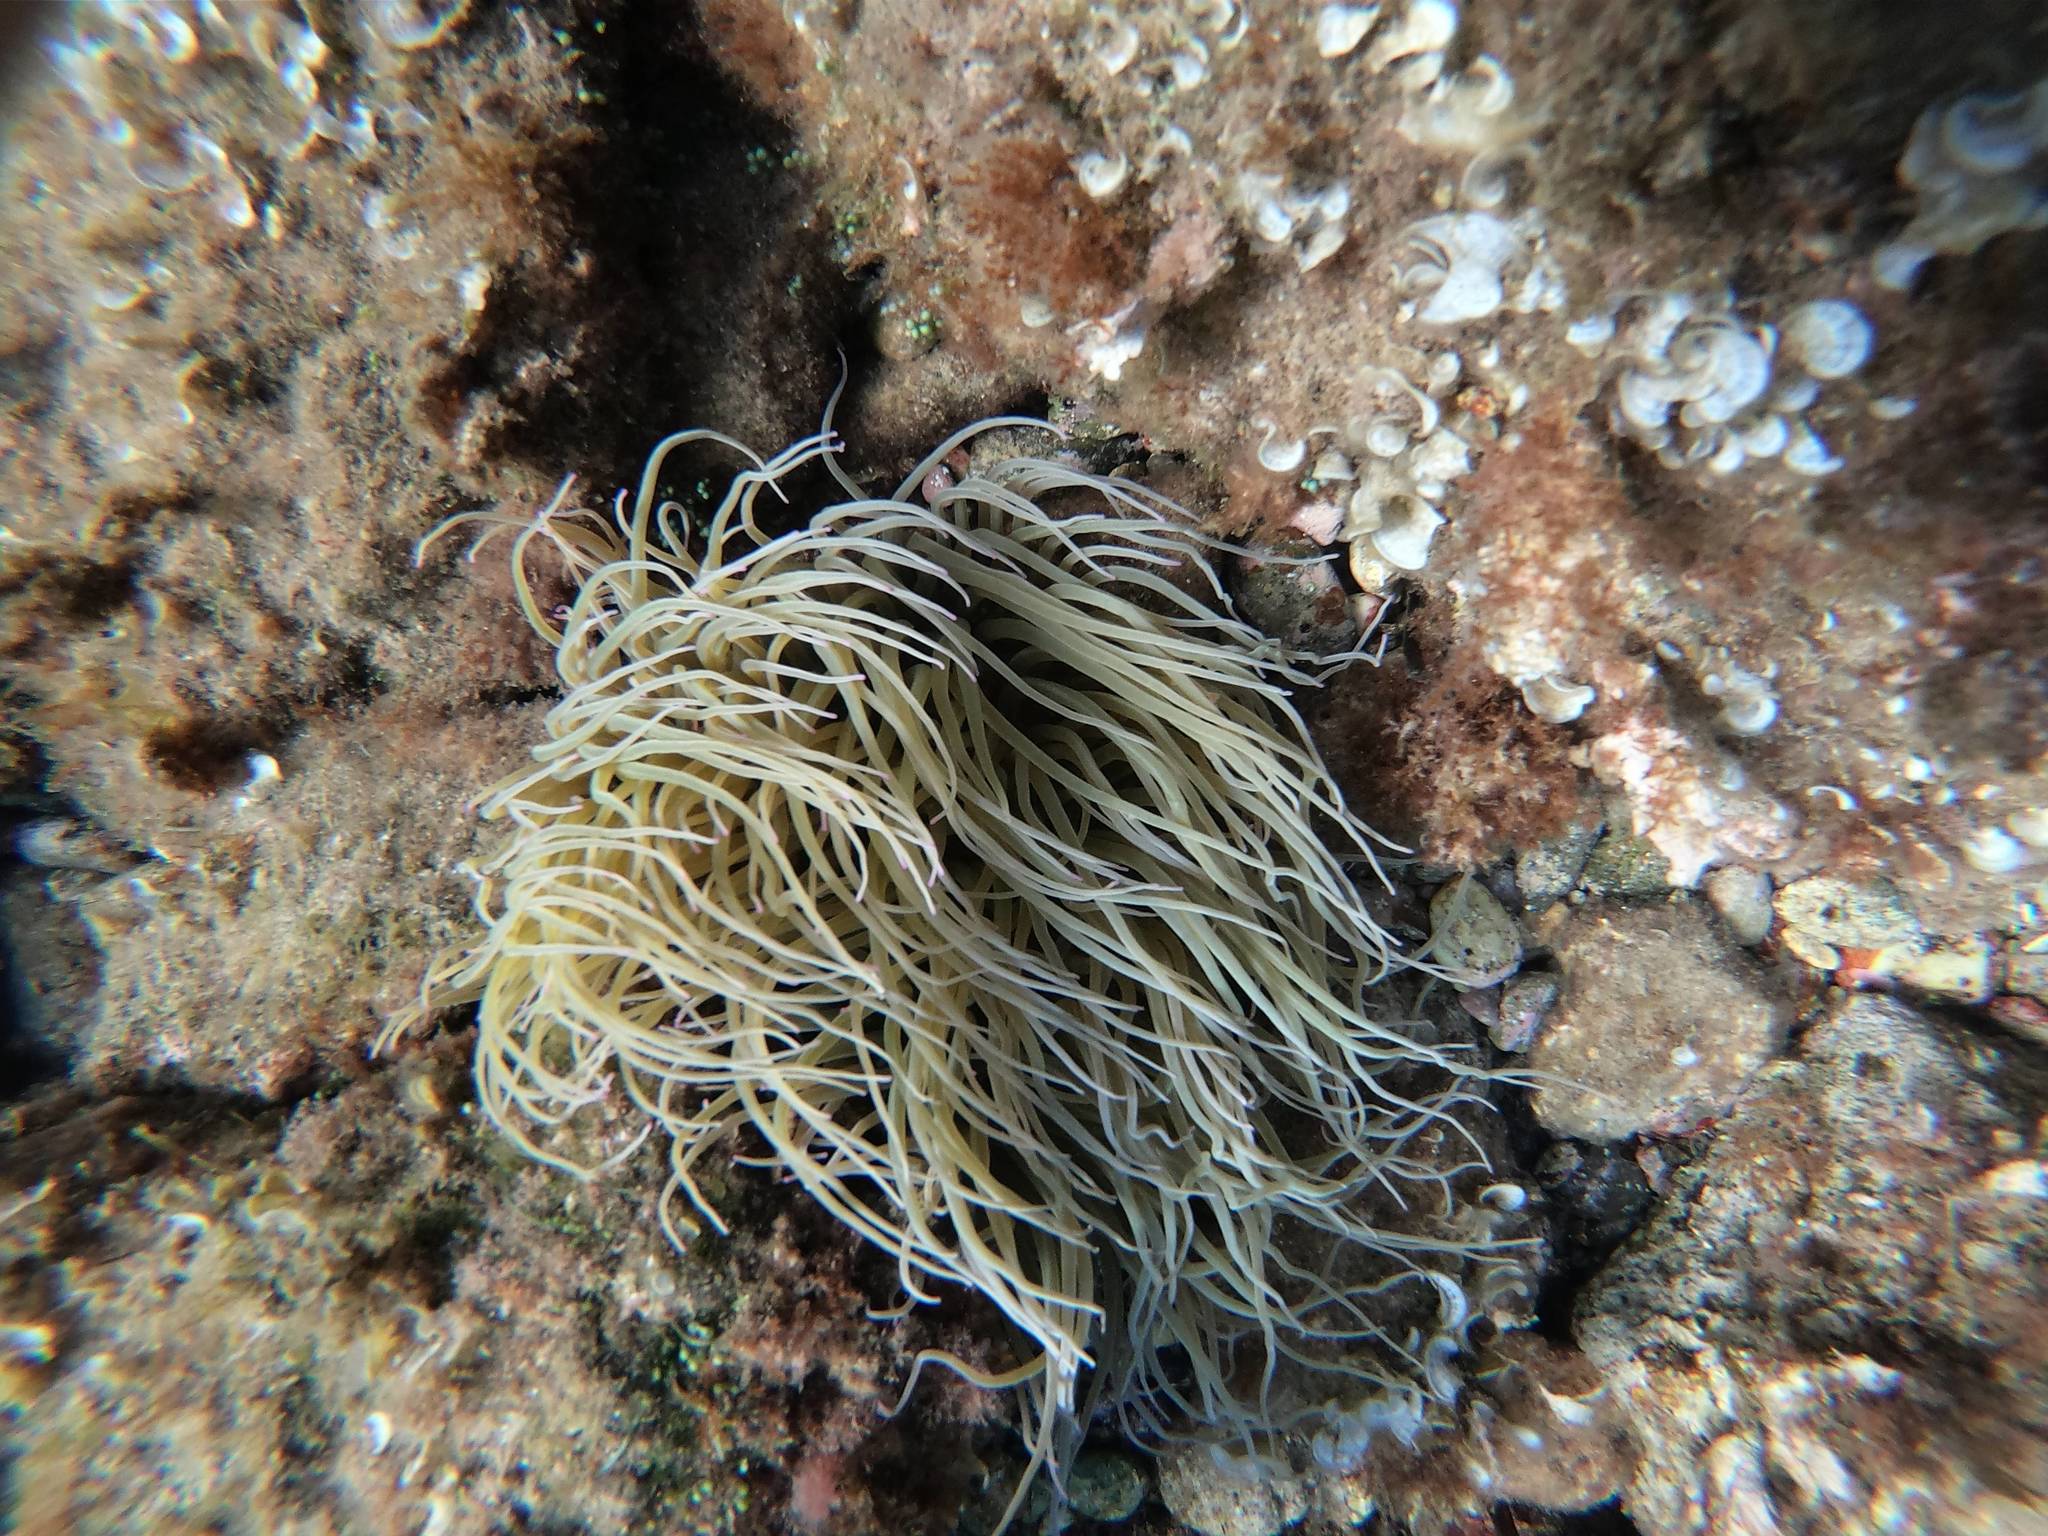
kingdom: Animalia
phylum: Cnidaria
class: Anthozoa
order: Actiniaria
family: Actiniidae
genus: Anemonia
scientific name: Anemonia viridis
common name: Snakelocks anemone
